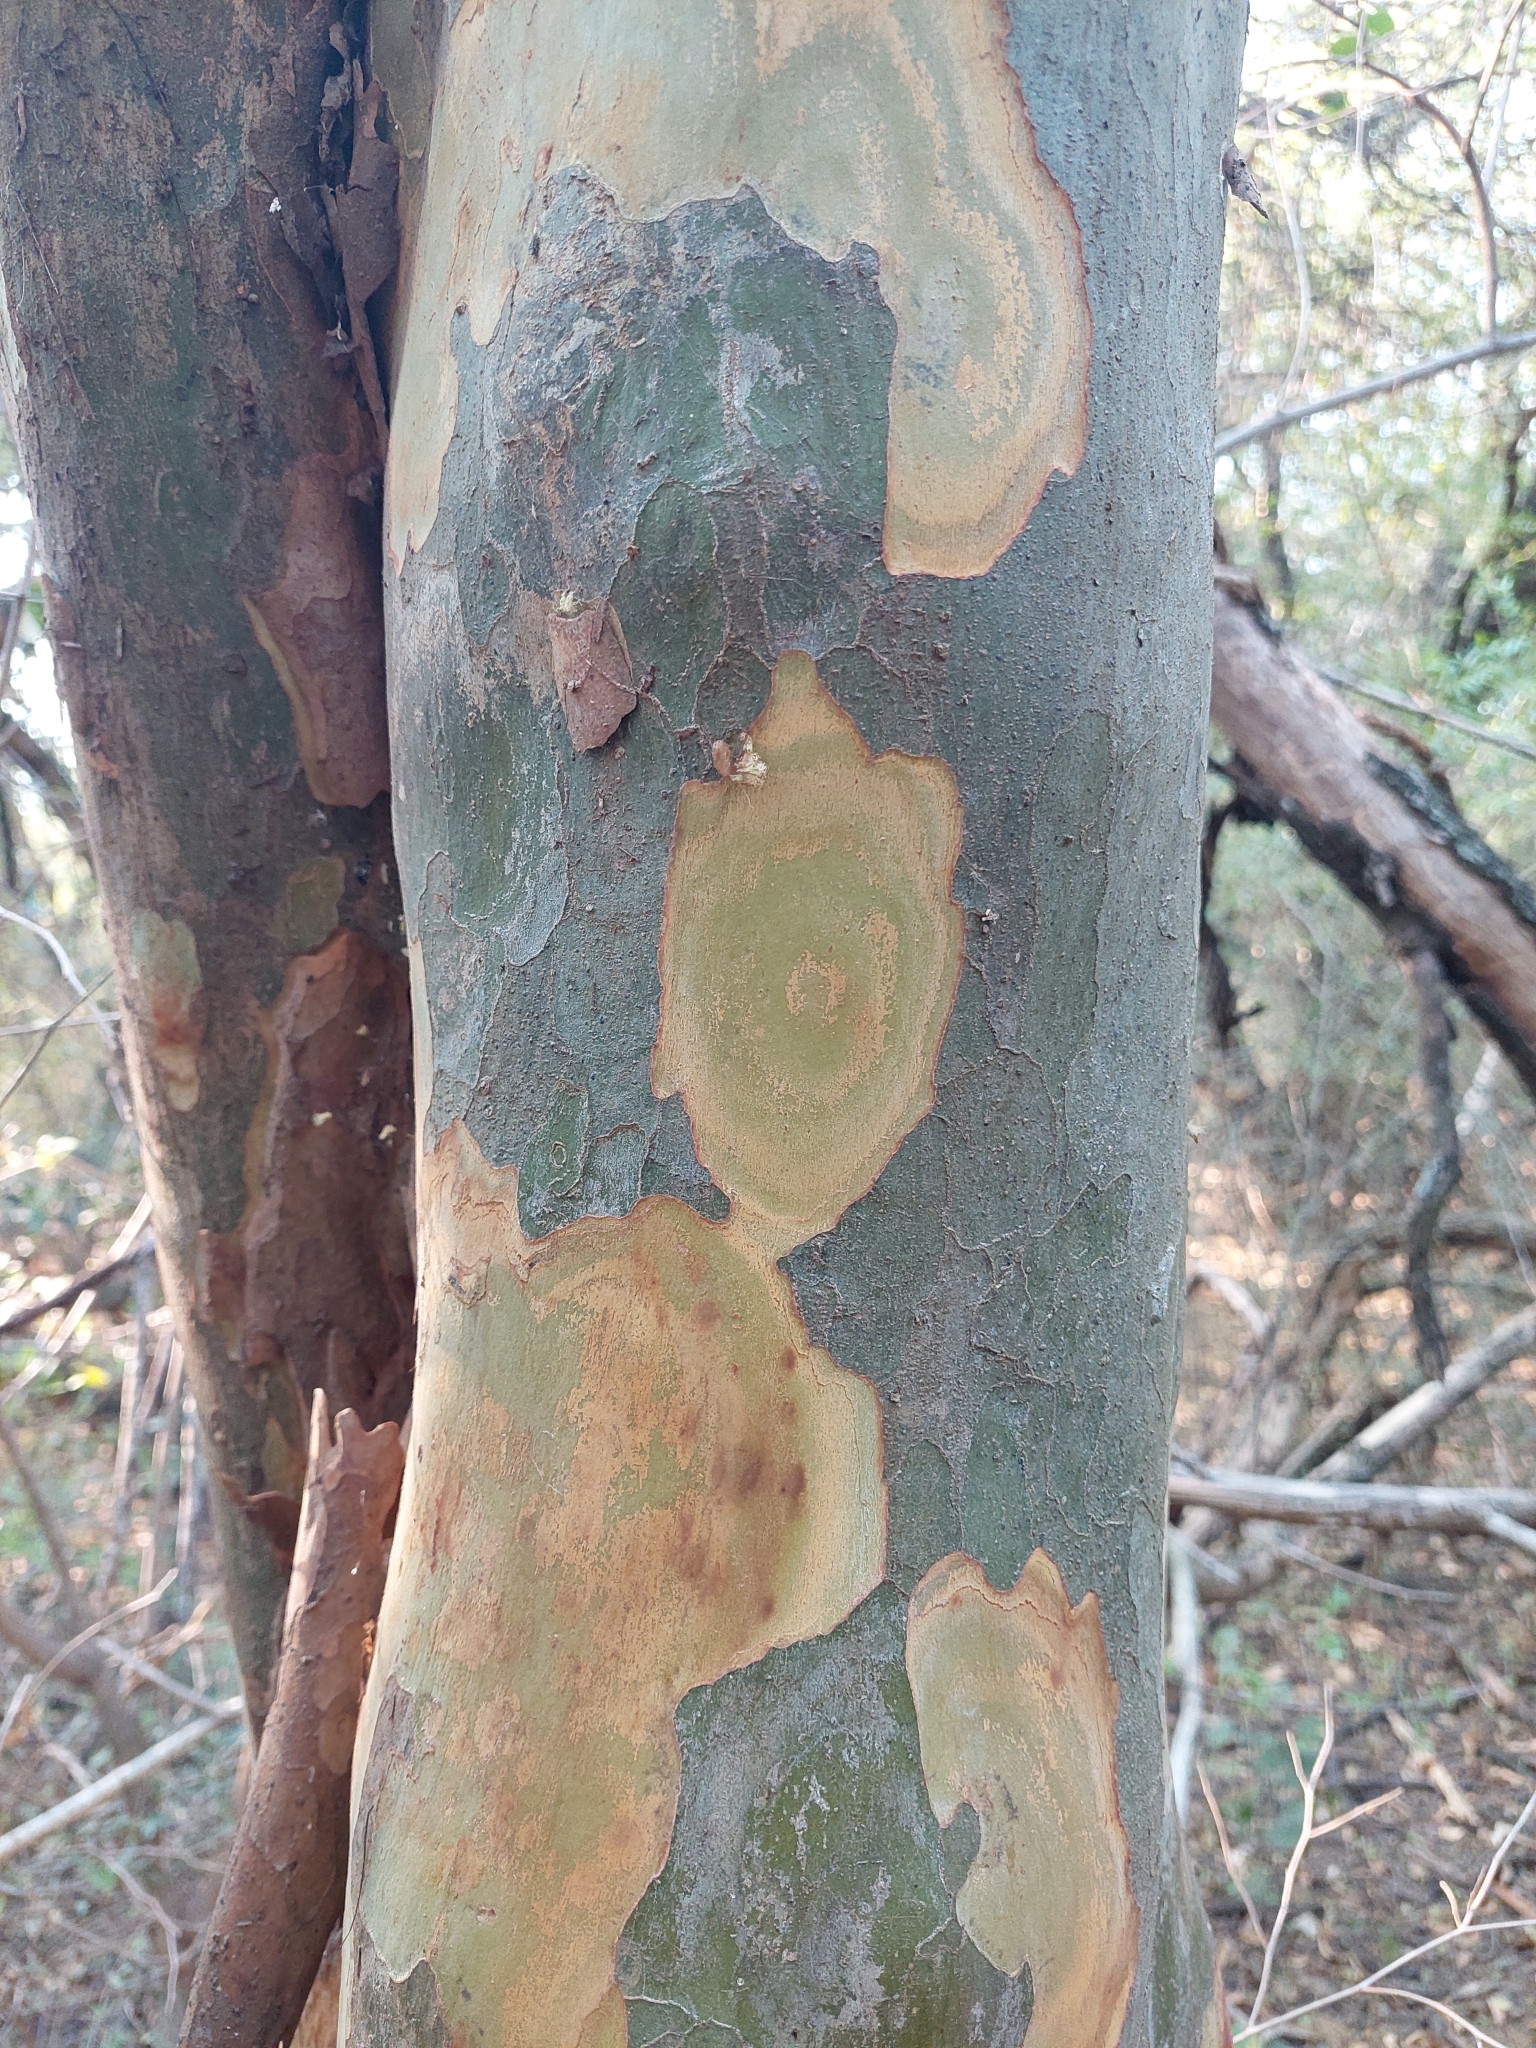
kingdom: Plantae
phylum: Tracheophyta
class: Magnoliopsida
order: Fabales
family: Fabaceae
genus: Libidibia
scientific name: Libidibia paraguariensis
